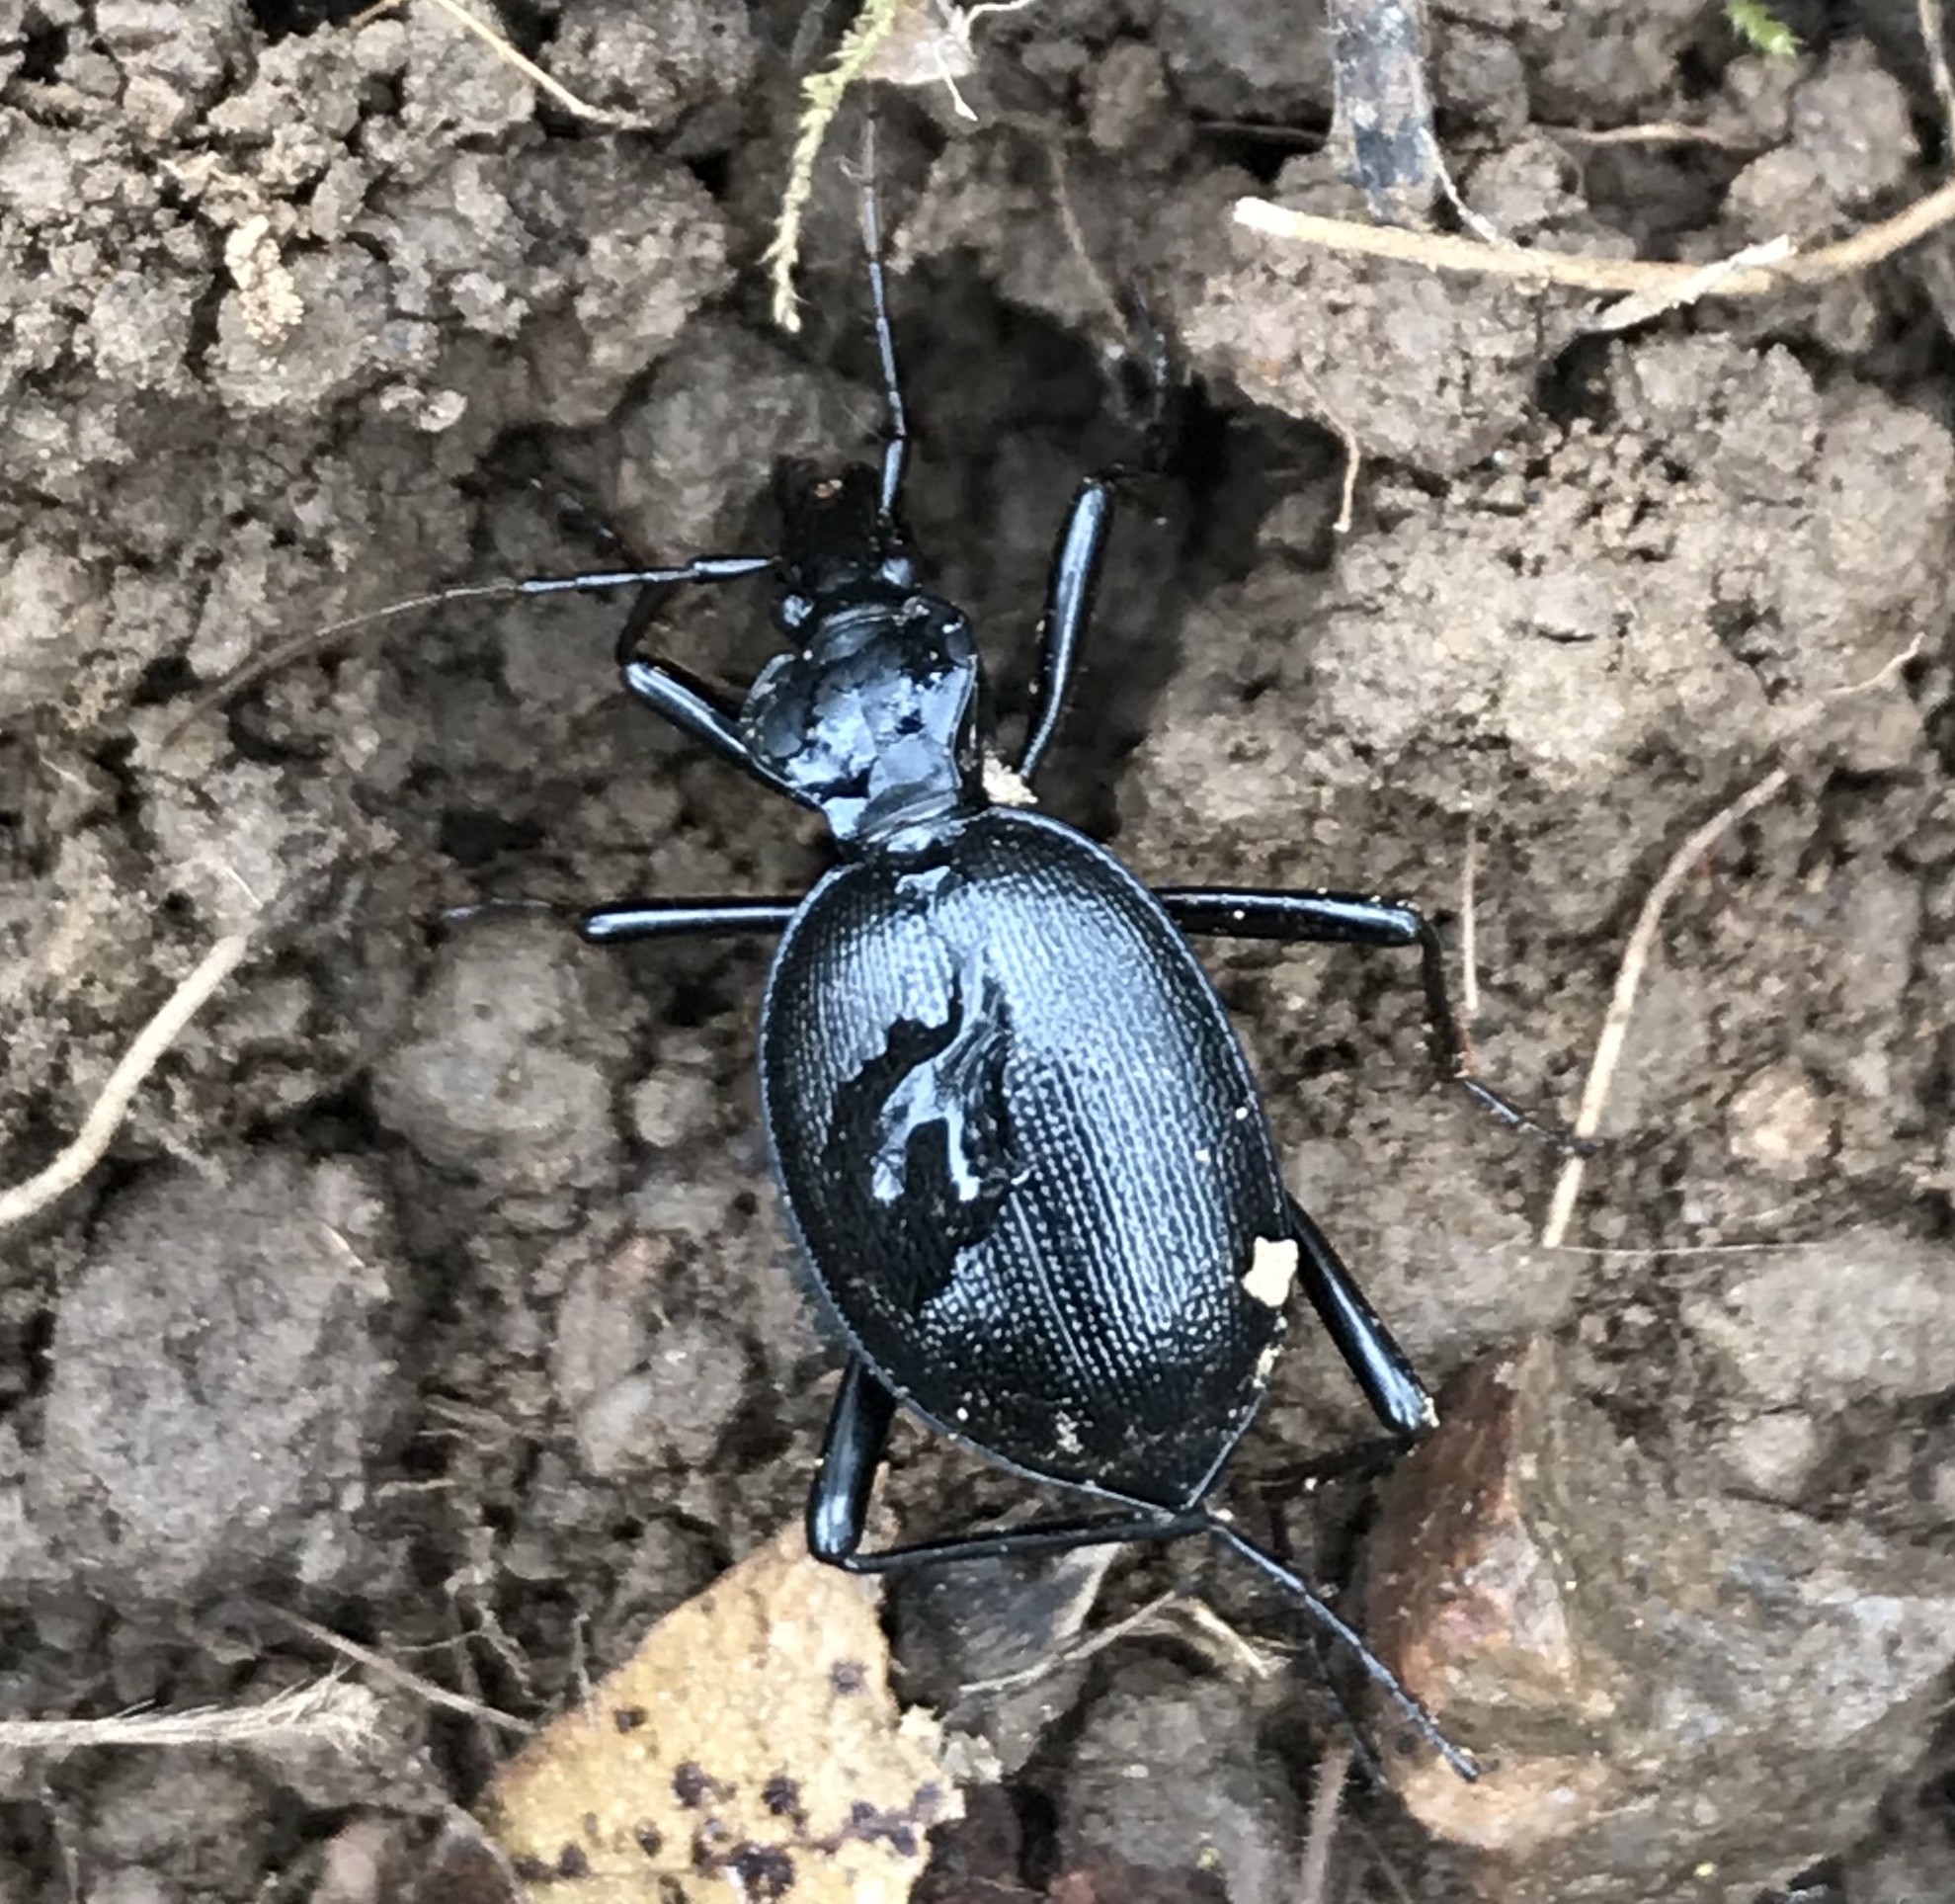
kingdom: Animalia
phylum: Arthropoda
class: Insecta
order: Coleoptera
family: Carabidae
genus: Scaphinotus
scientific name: Scaphinotus interruptus
